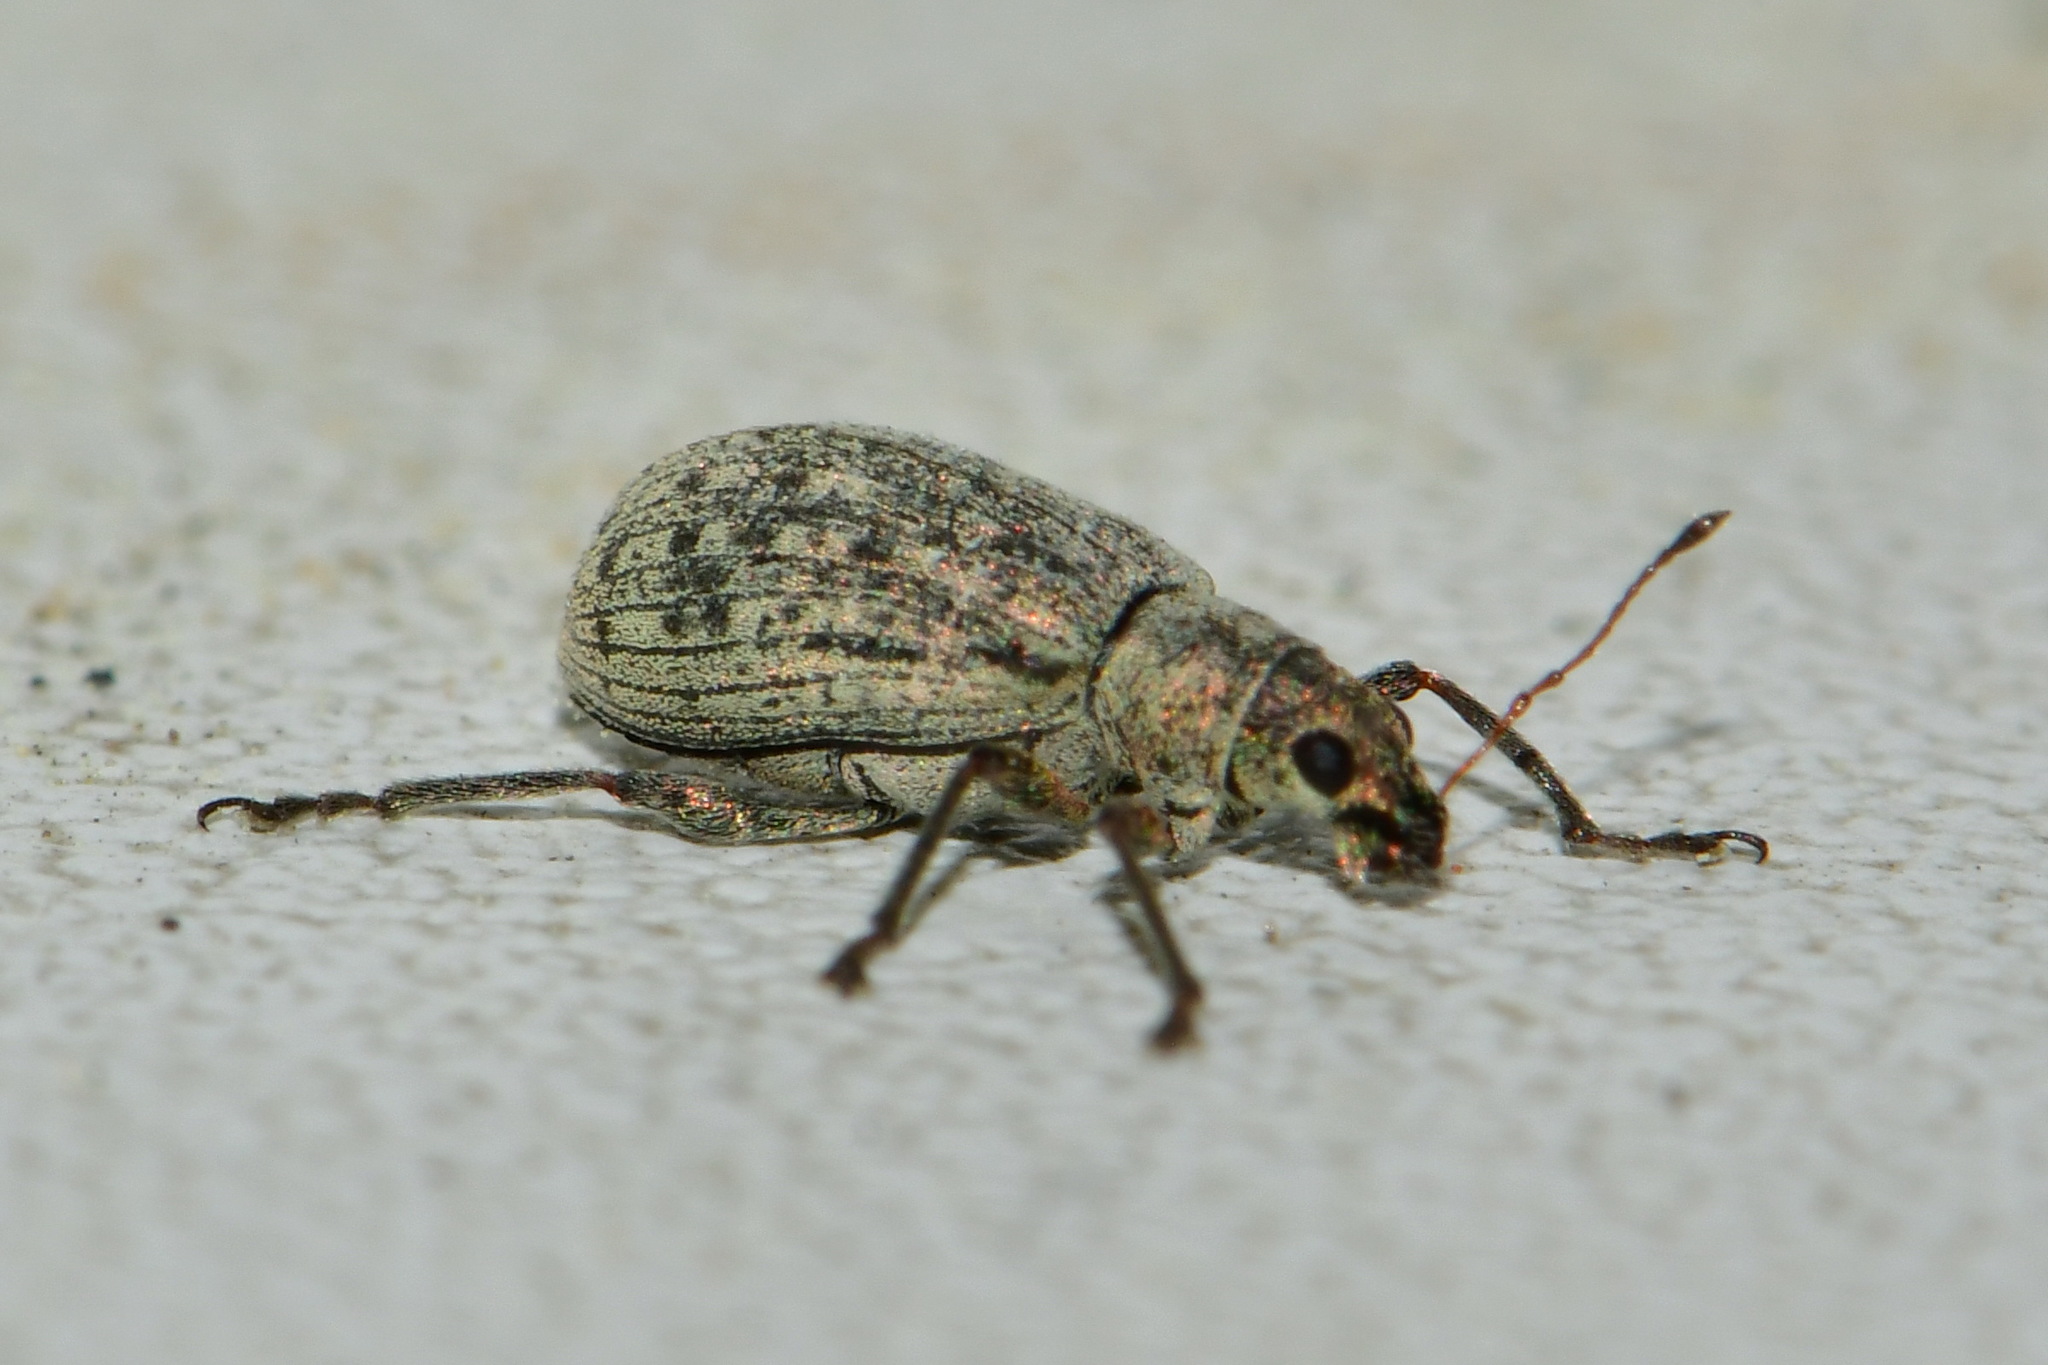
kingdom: Animalia
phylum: Arthropoda
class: Insecta
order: Coleoptera
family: Curculionidae
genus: Polydrusus
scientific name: Polydrusus cervinus
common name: Weevil
